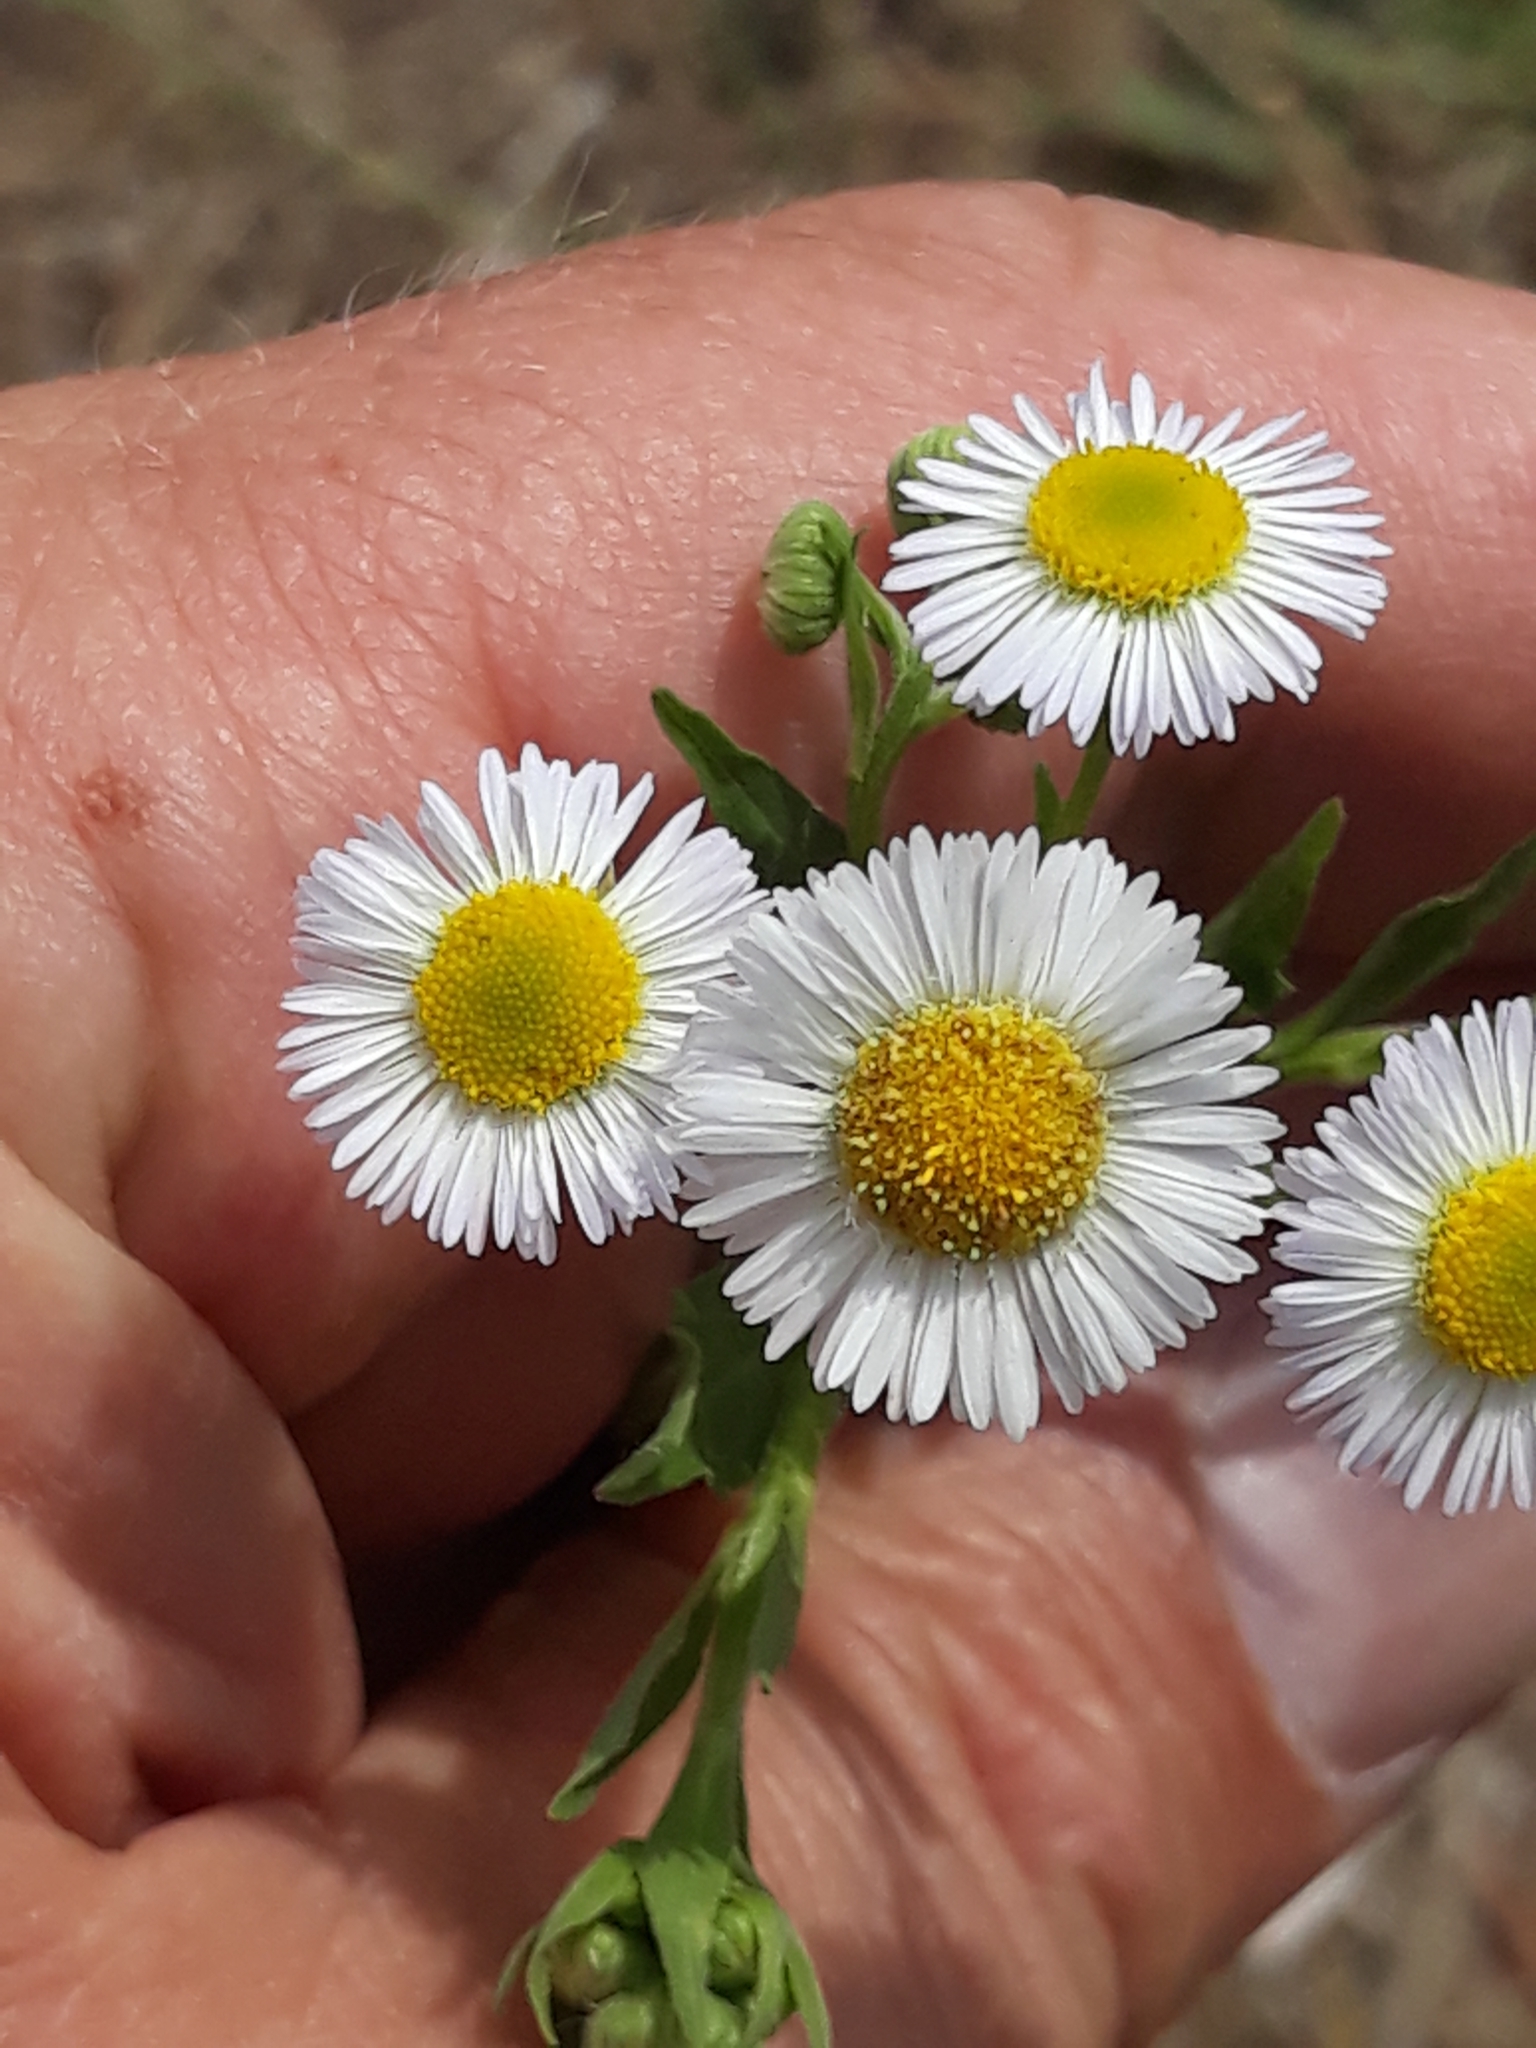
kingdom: Plantae
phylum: Tracheophyta
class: Magnoliopsida
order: Asterales
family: Asteraceae
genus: Erigeron
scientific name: Erigeron annuus
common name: Tall fleabane
